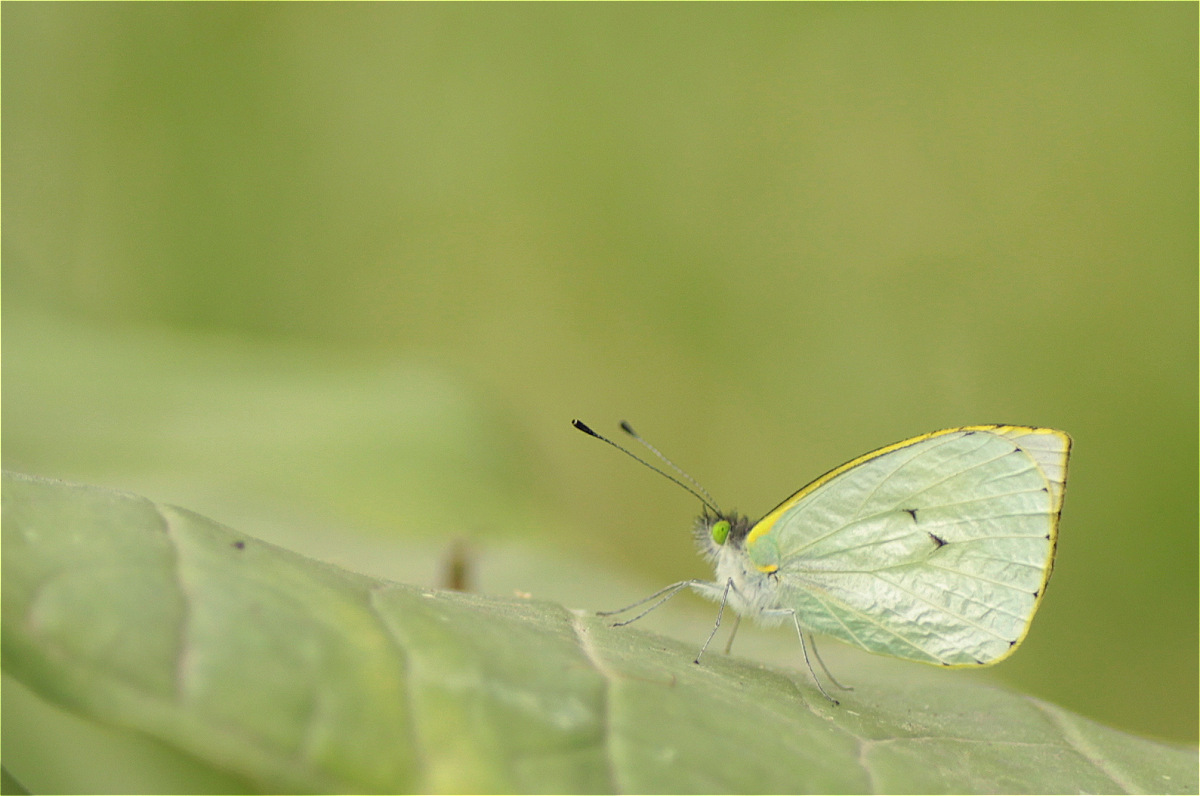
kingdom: Animalia
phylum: Arthropoda
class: Insecta
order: Lepidoptera
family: Pieridae
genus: Leptophobia
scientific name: Leptophobia eleone
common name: Silky wanderer
